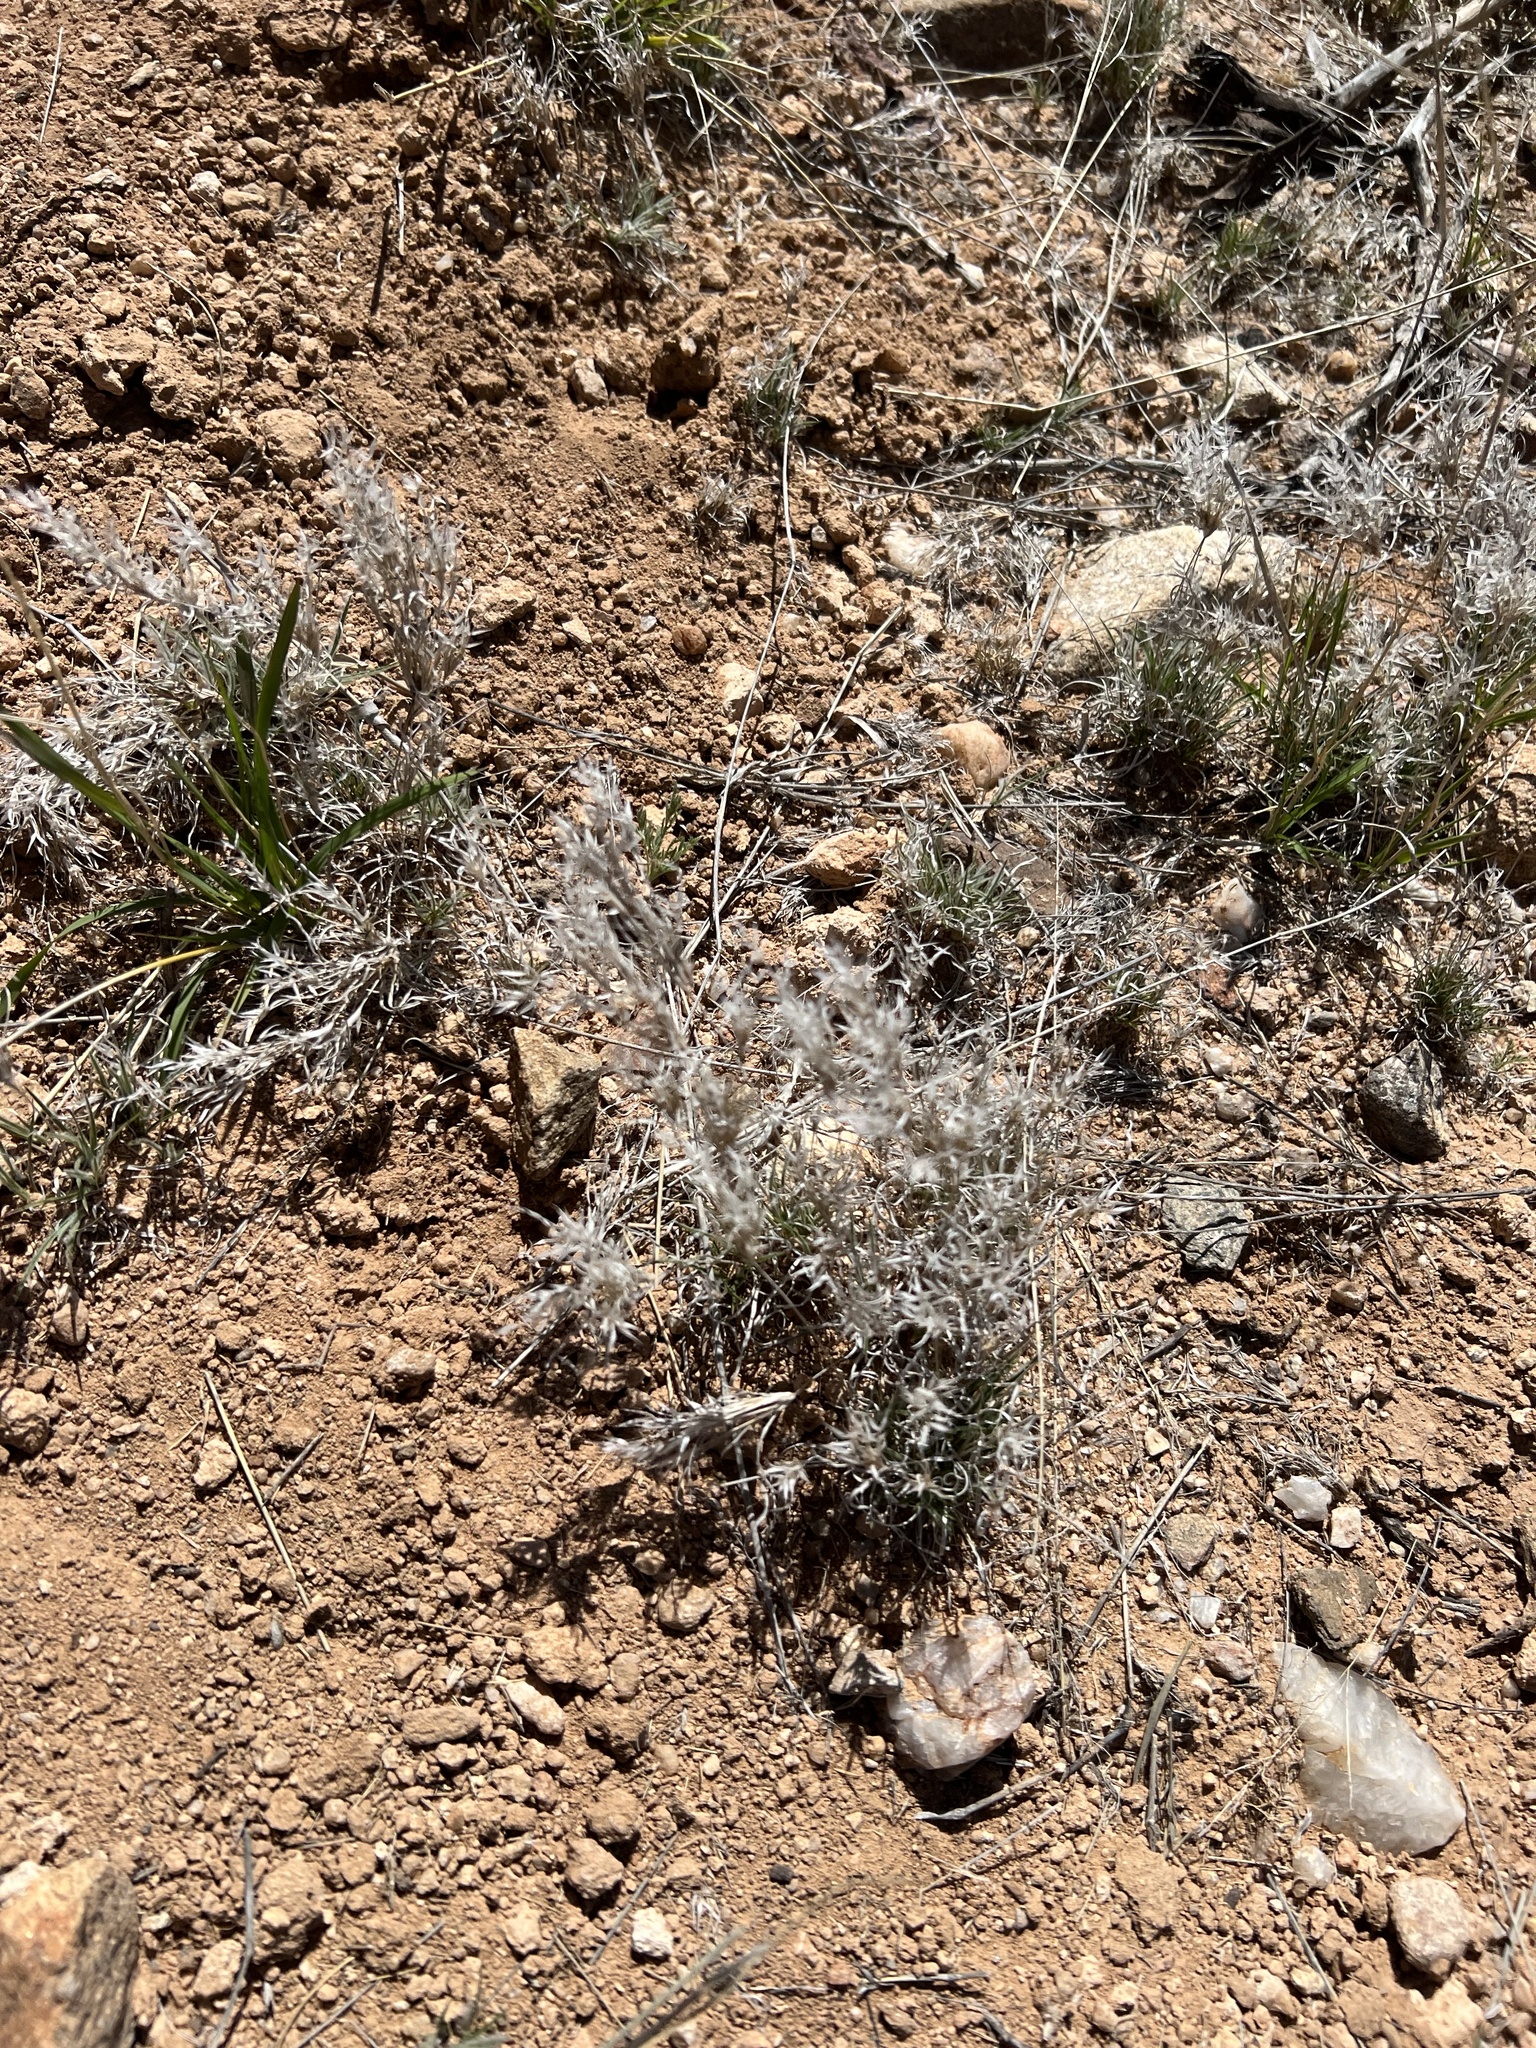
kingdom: Plantae
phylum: Tracheophyta
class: Liliopsida
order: Poales
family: Poaceae
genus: Dasyochloa
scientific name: Dasyochloa pulchella
